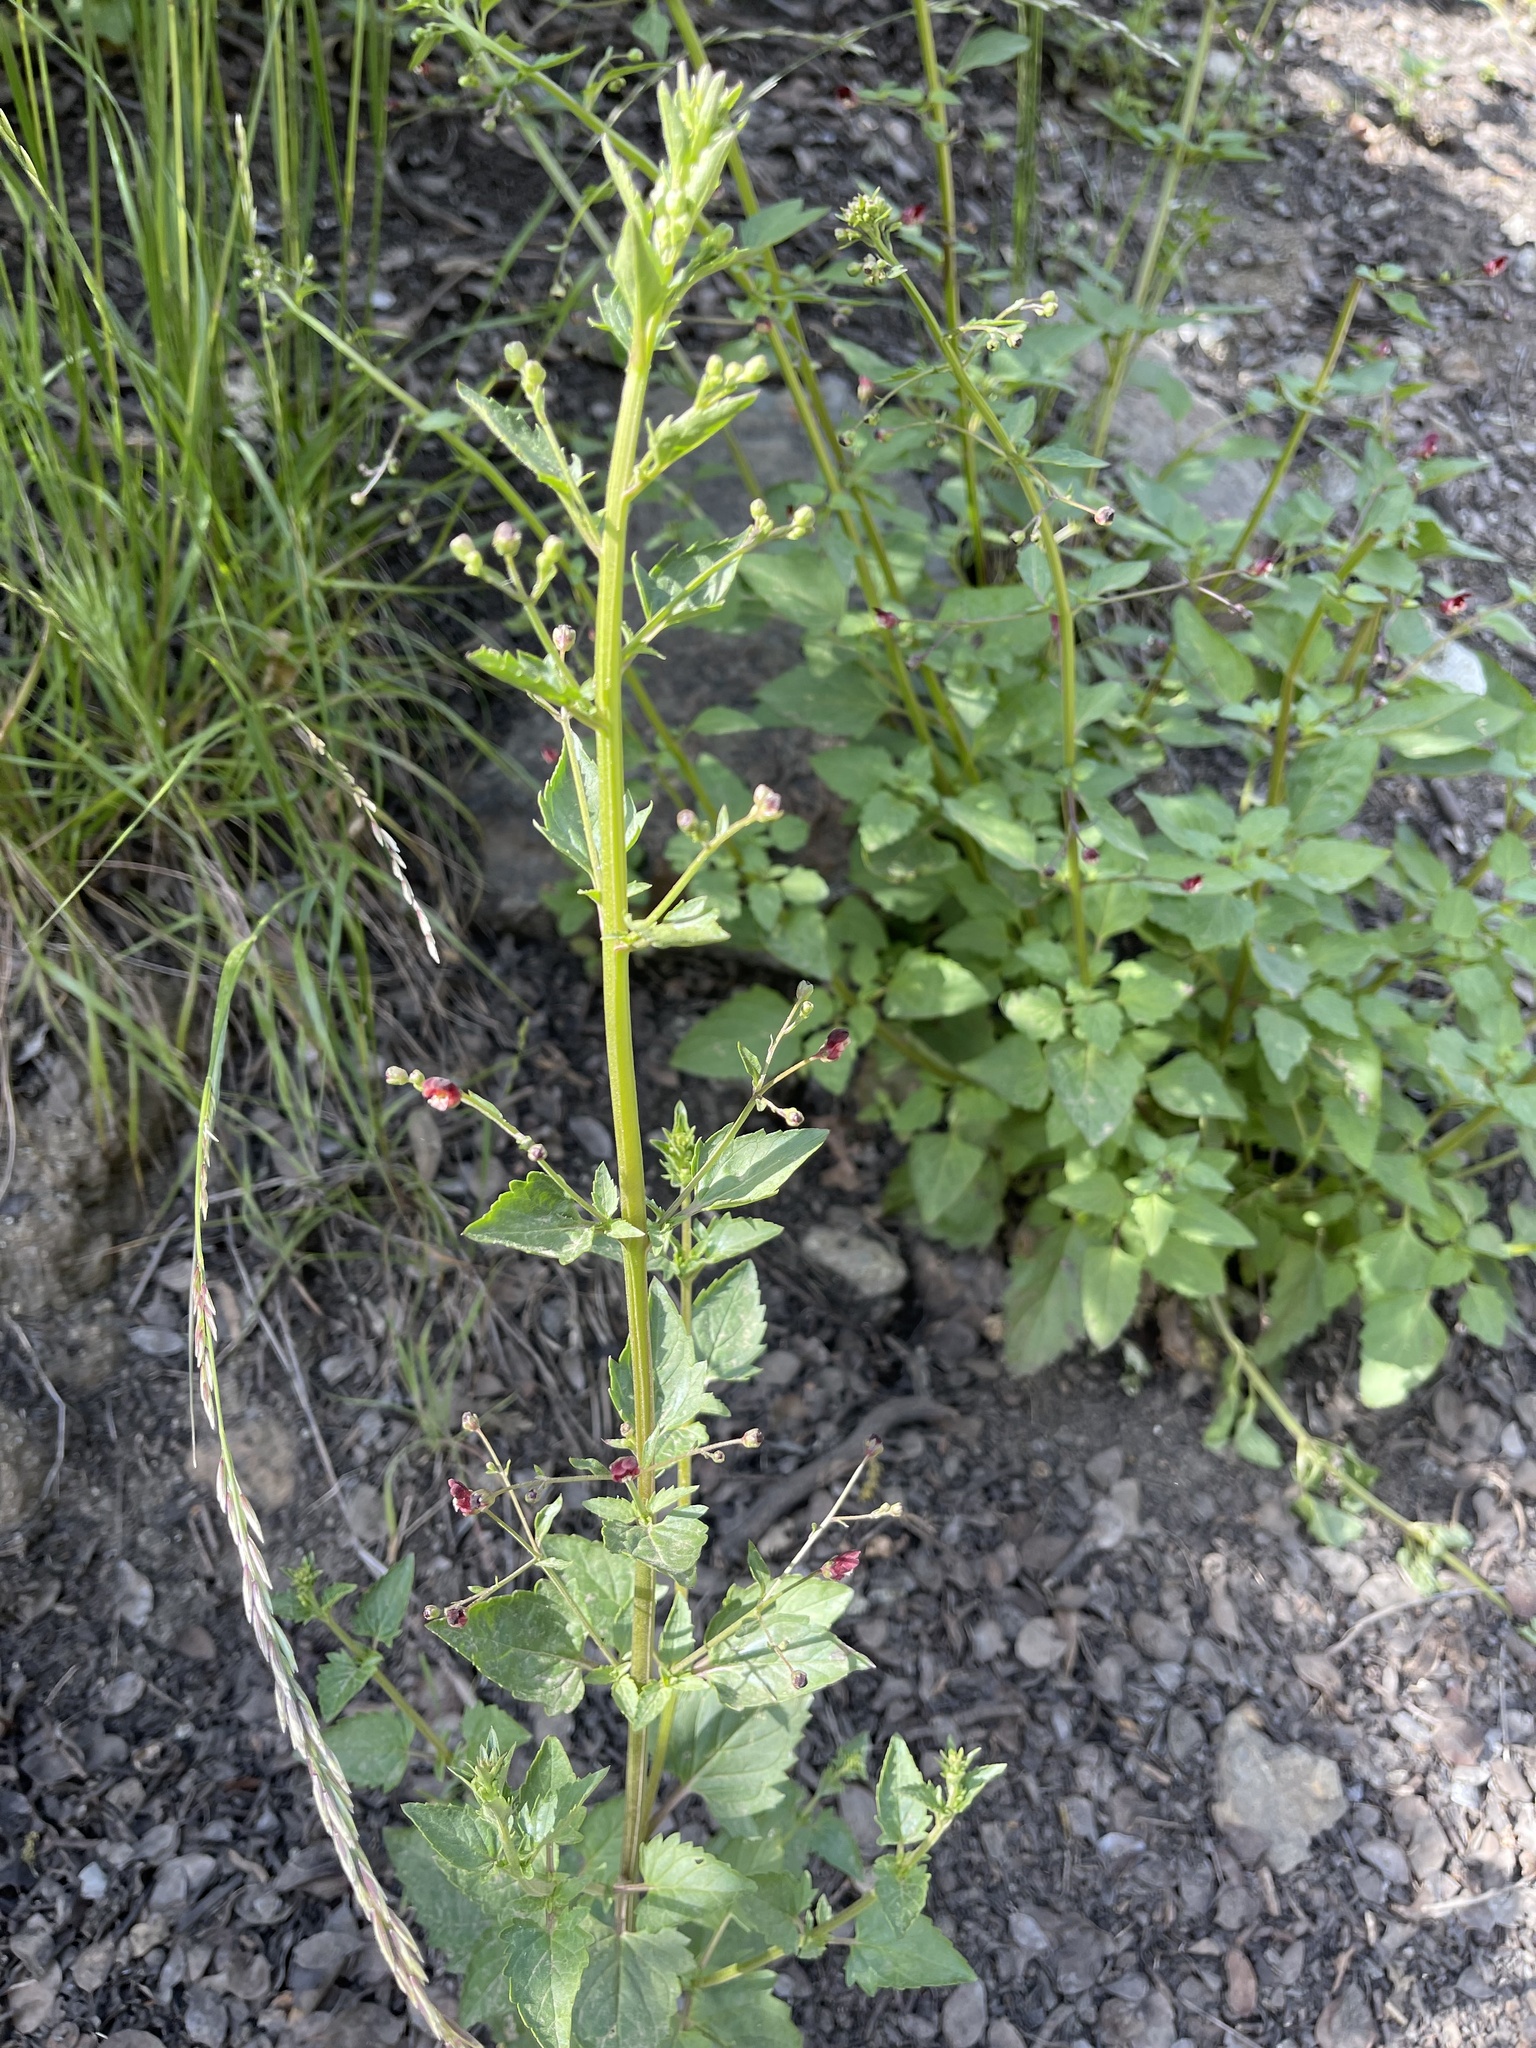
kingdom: Plantae
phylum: Tracheophyta
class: Magnoliopsida
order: Lamiales
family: Scrophulariaceae
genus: Scrophularia
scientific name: Scrophularia californica
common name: California figwort
